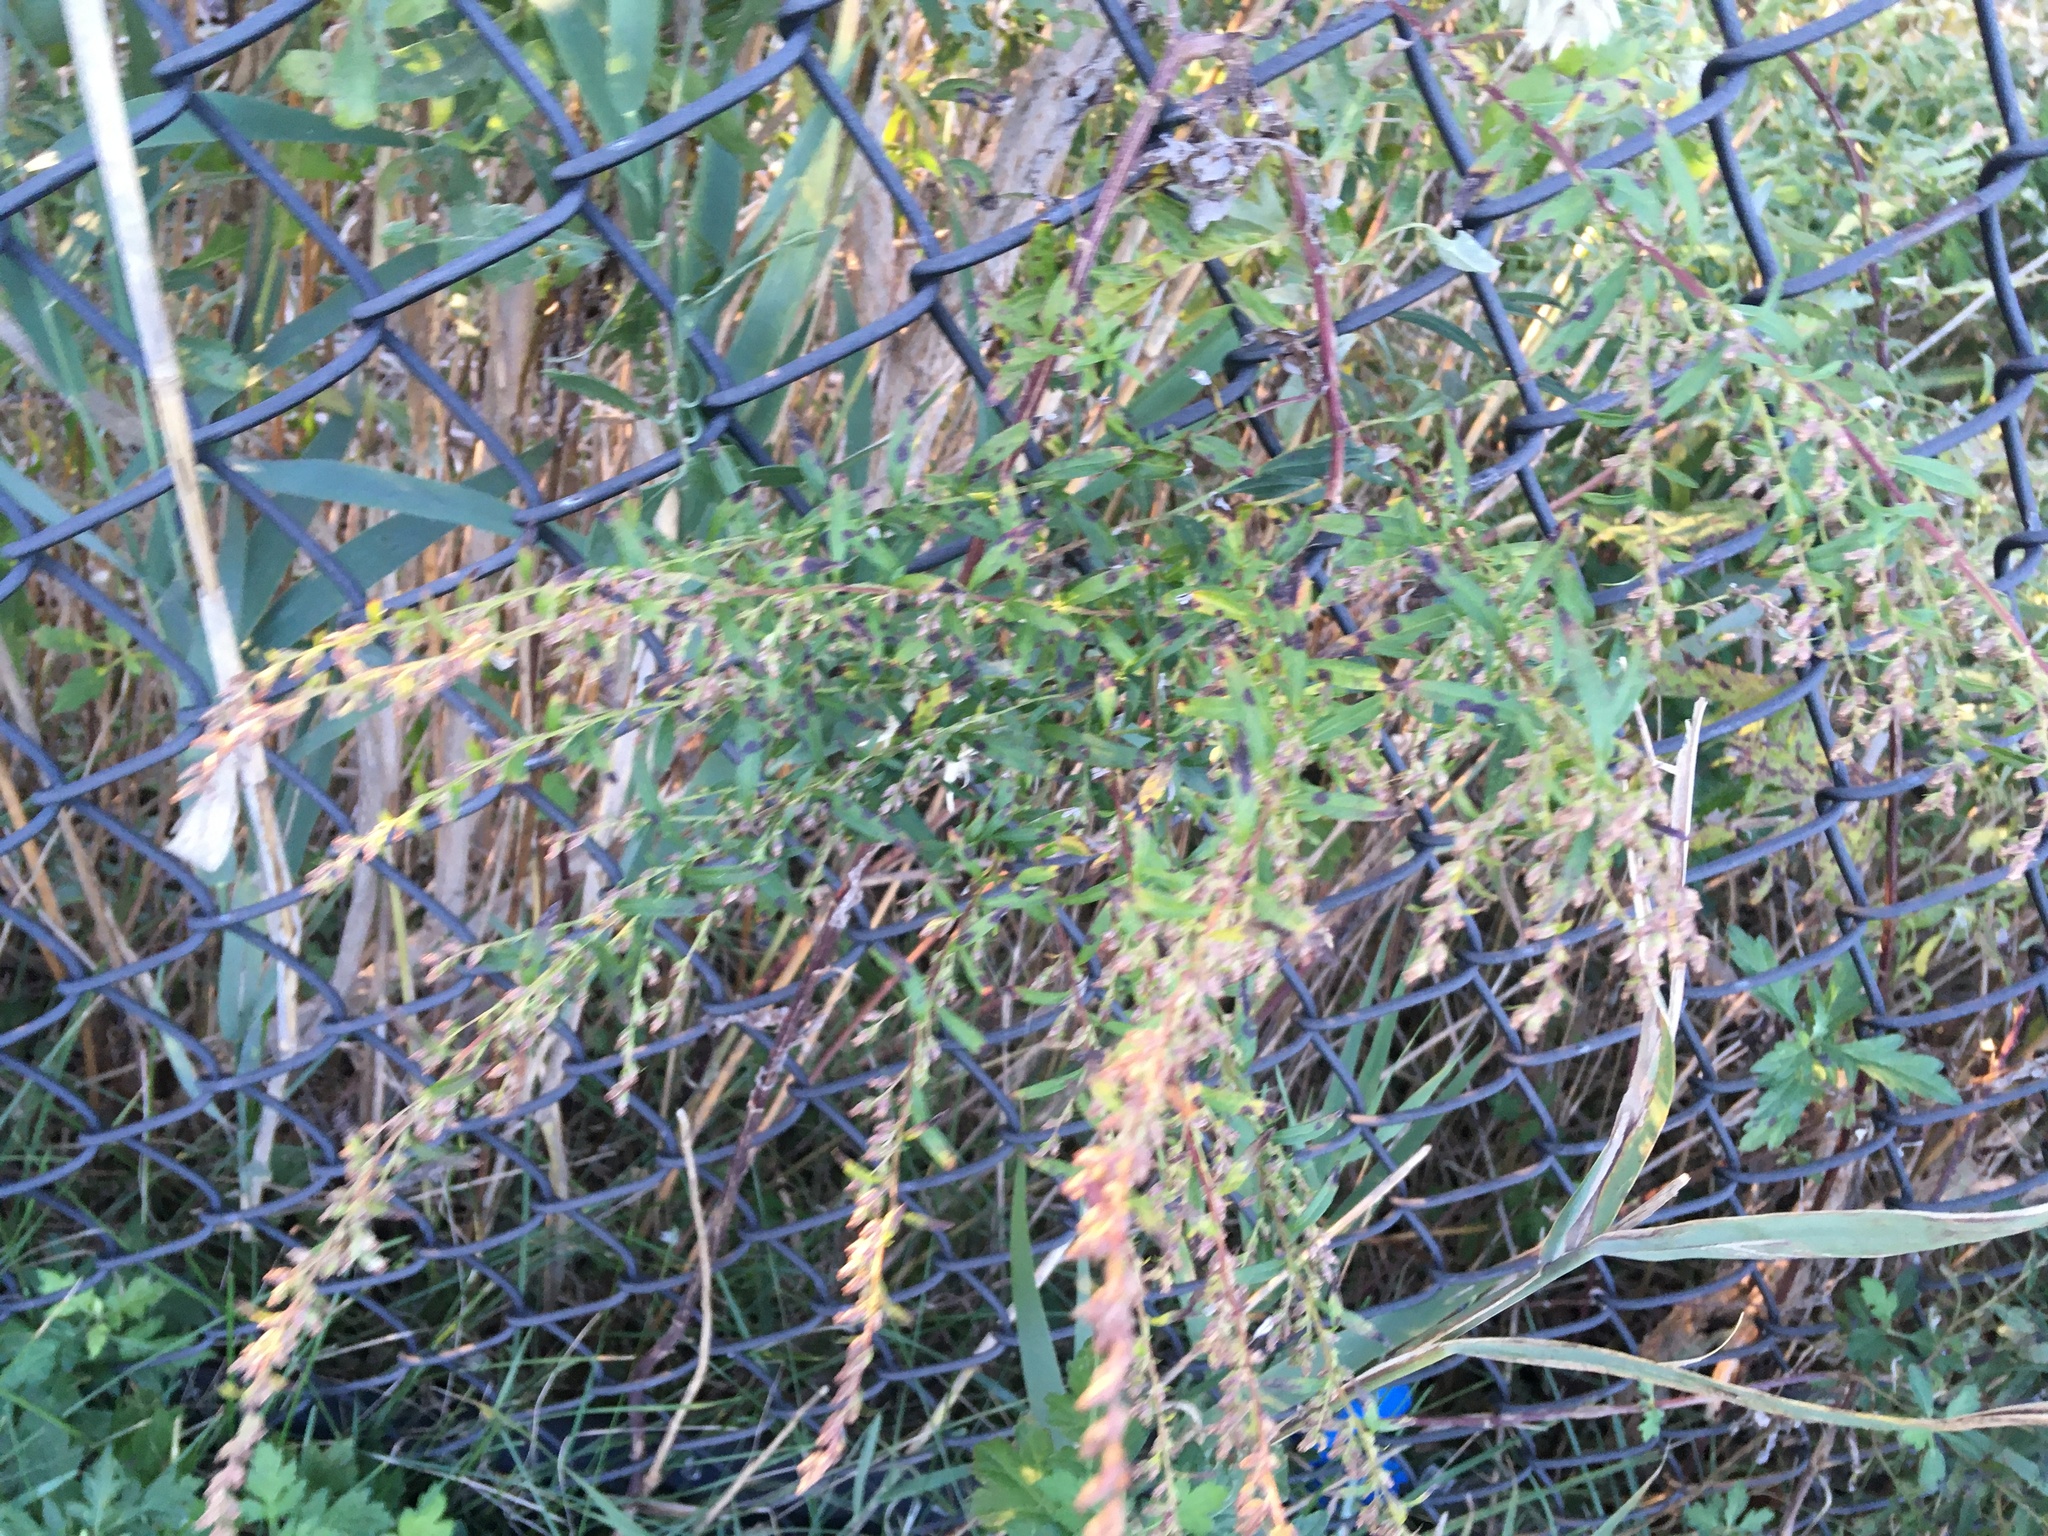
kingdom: Plantae
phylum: Tracheophyta
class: Magnoliopsida
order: Asterales
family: Asteraceae
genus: Artemisia
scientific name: Artemisia vulgaris
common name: Mugwort
